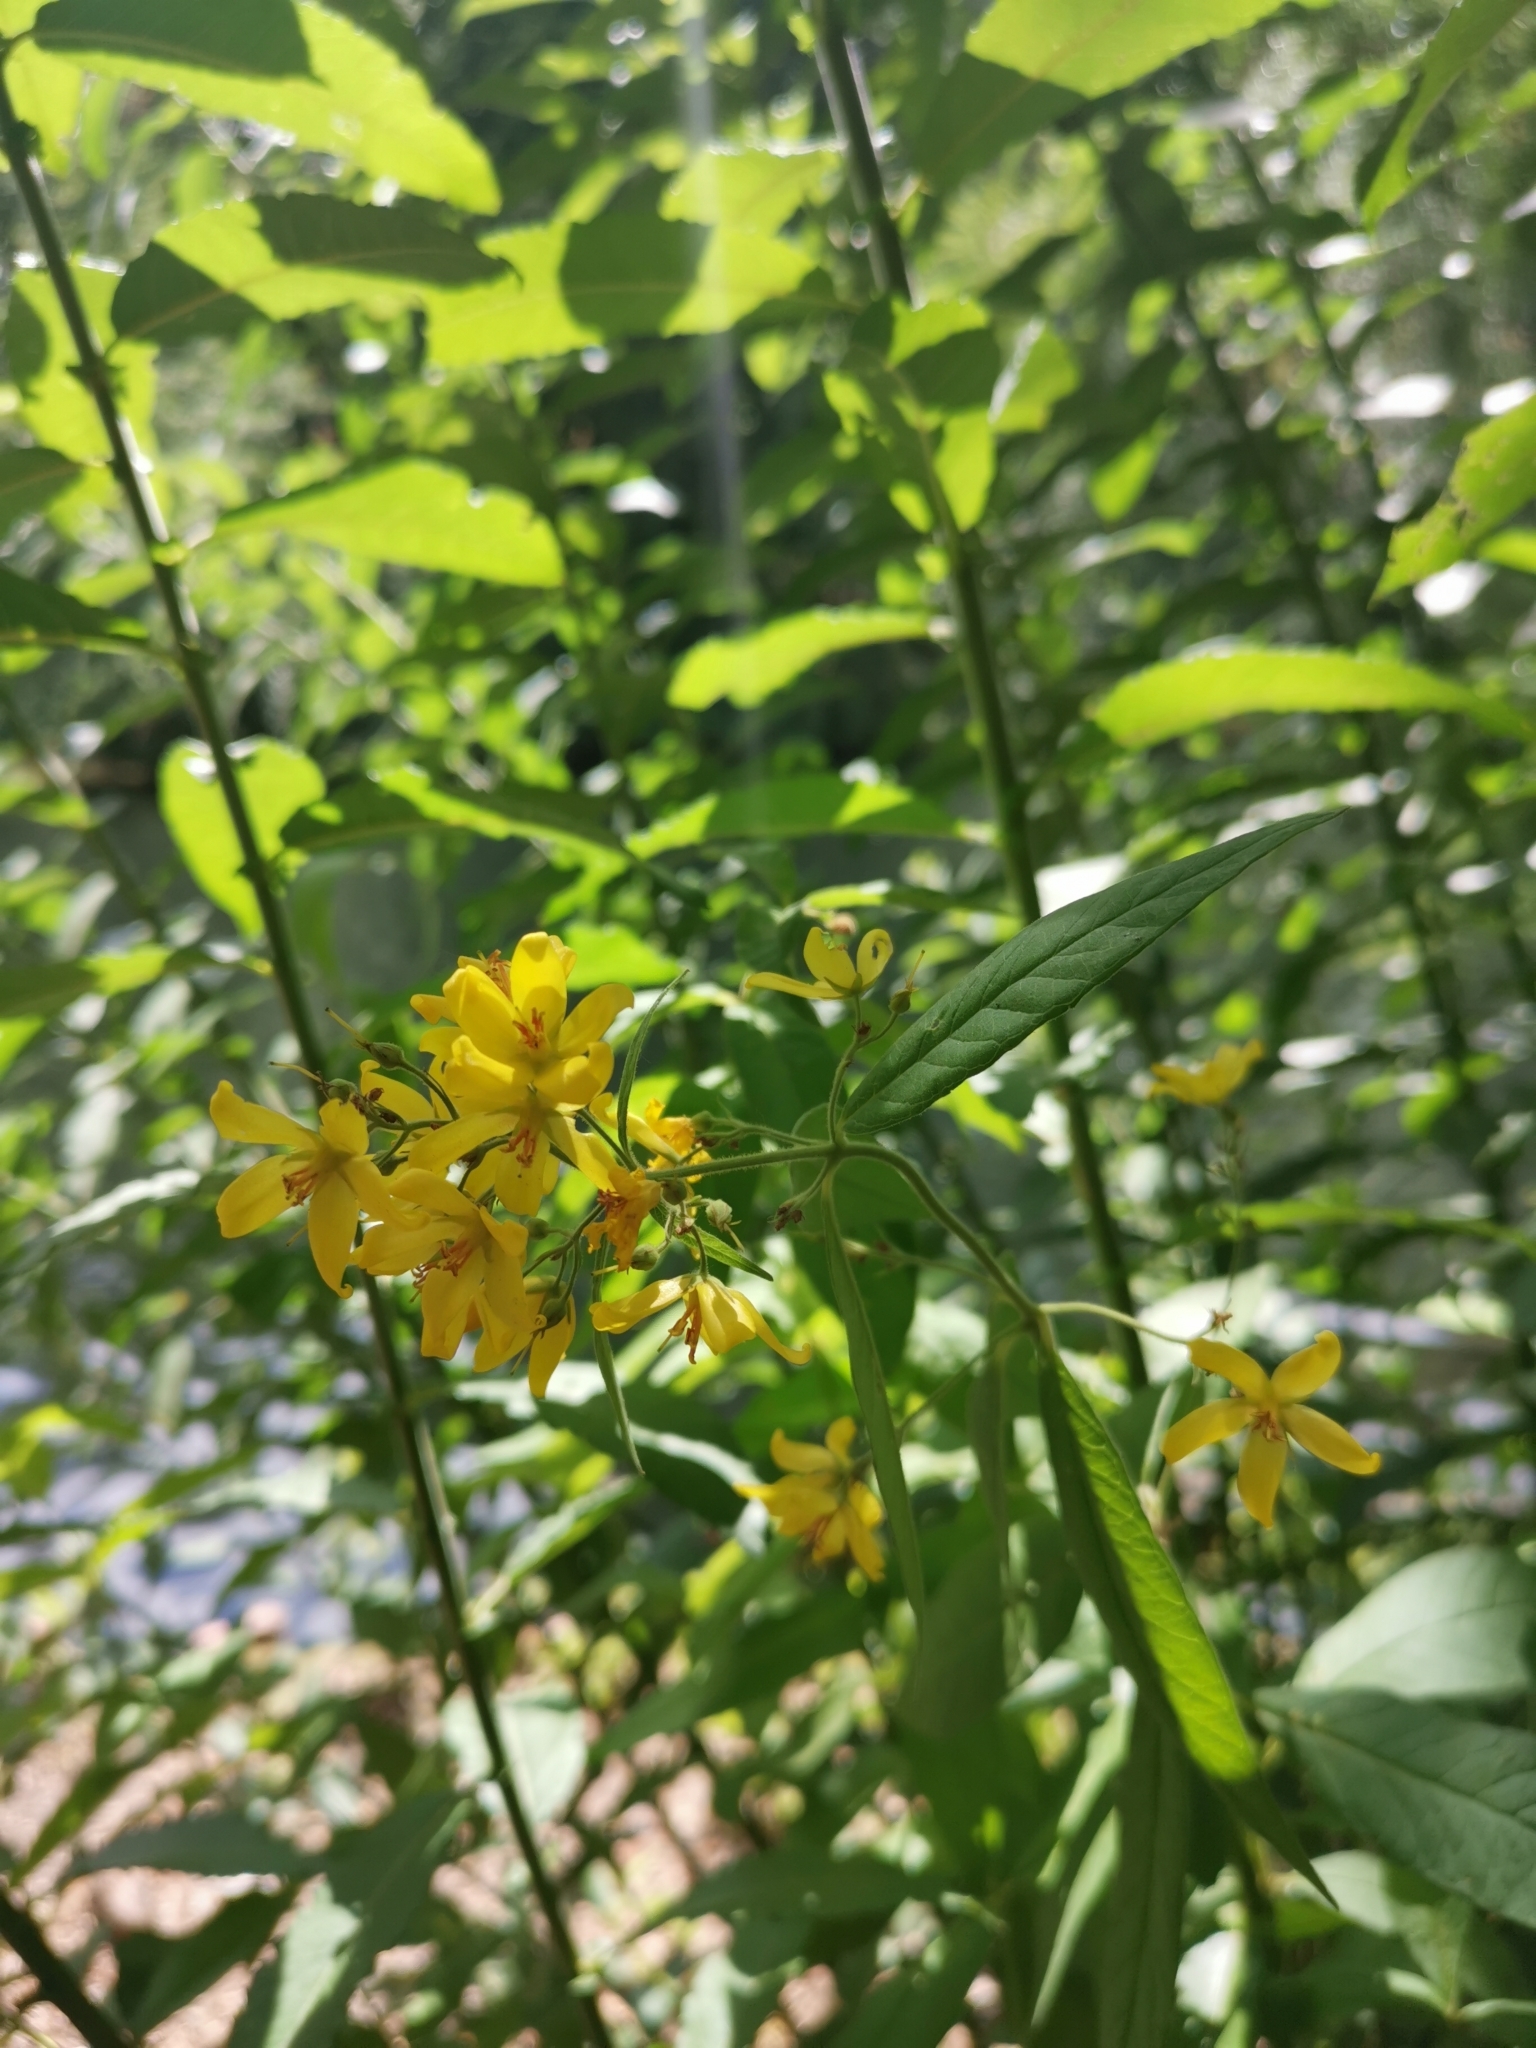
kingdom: Plantae
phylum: Tracheophyta
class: Magnoliopsida
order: Ericales
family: Primulaceae
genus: Lysimachia
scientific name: Lysimachia vulgaris
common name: Yellow loosestrife
